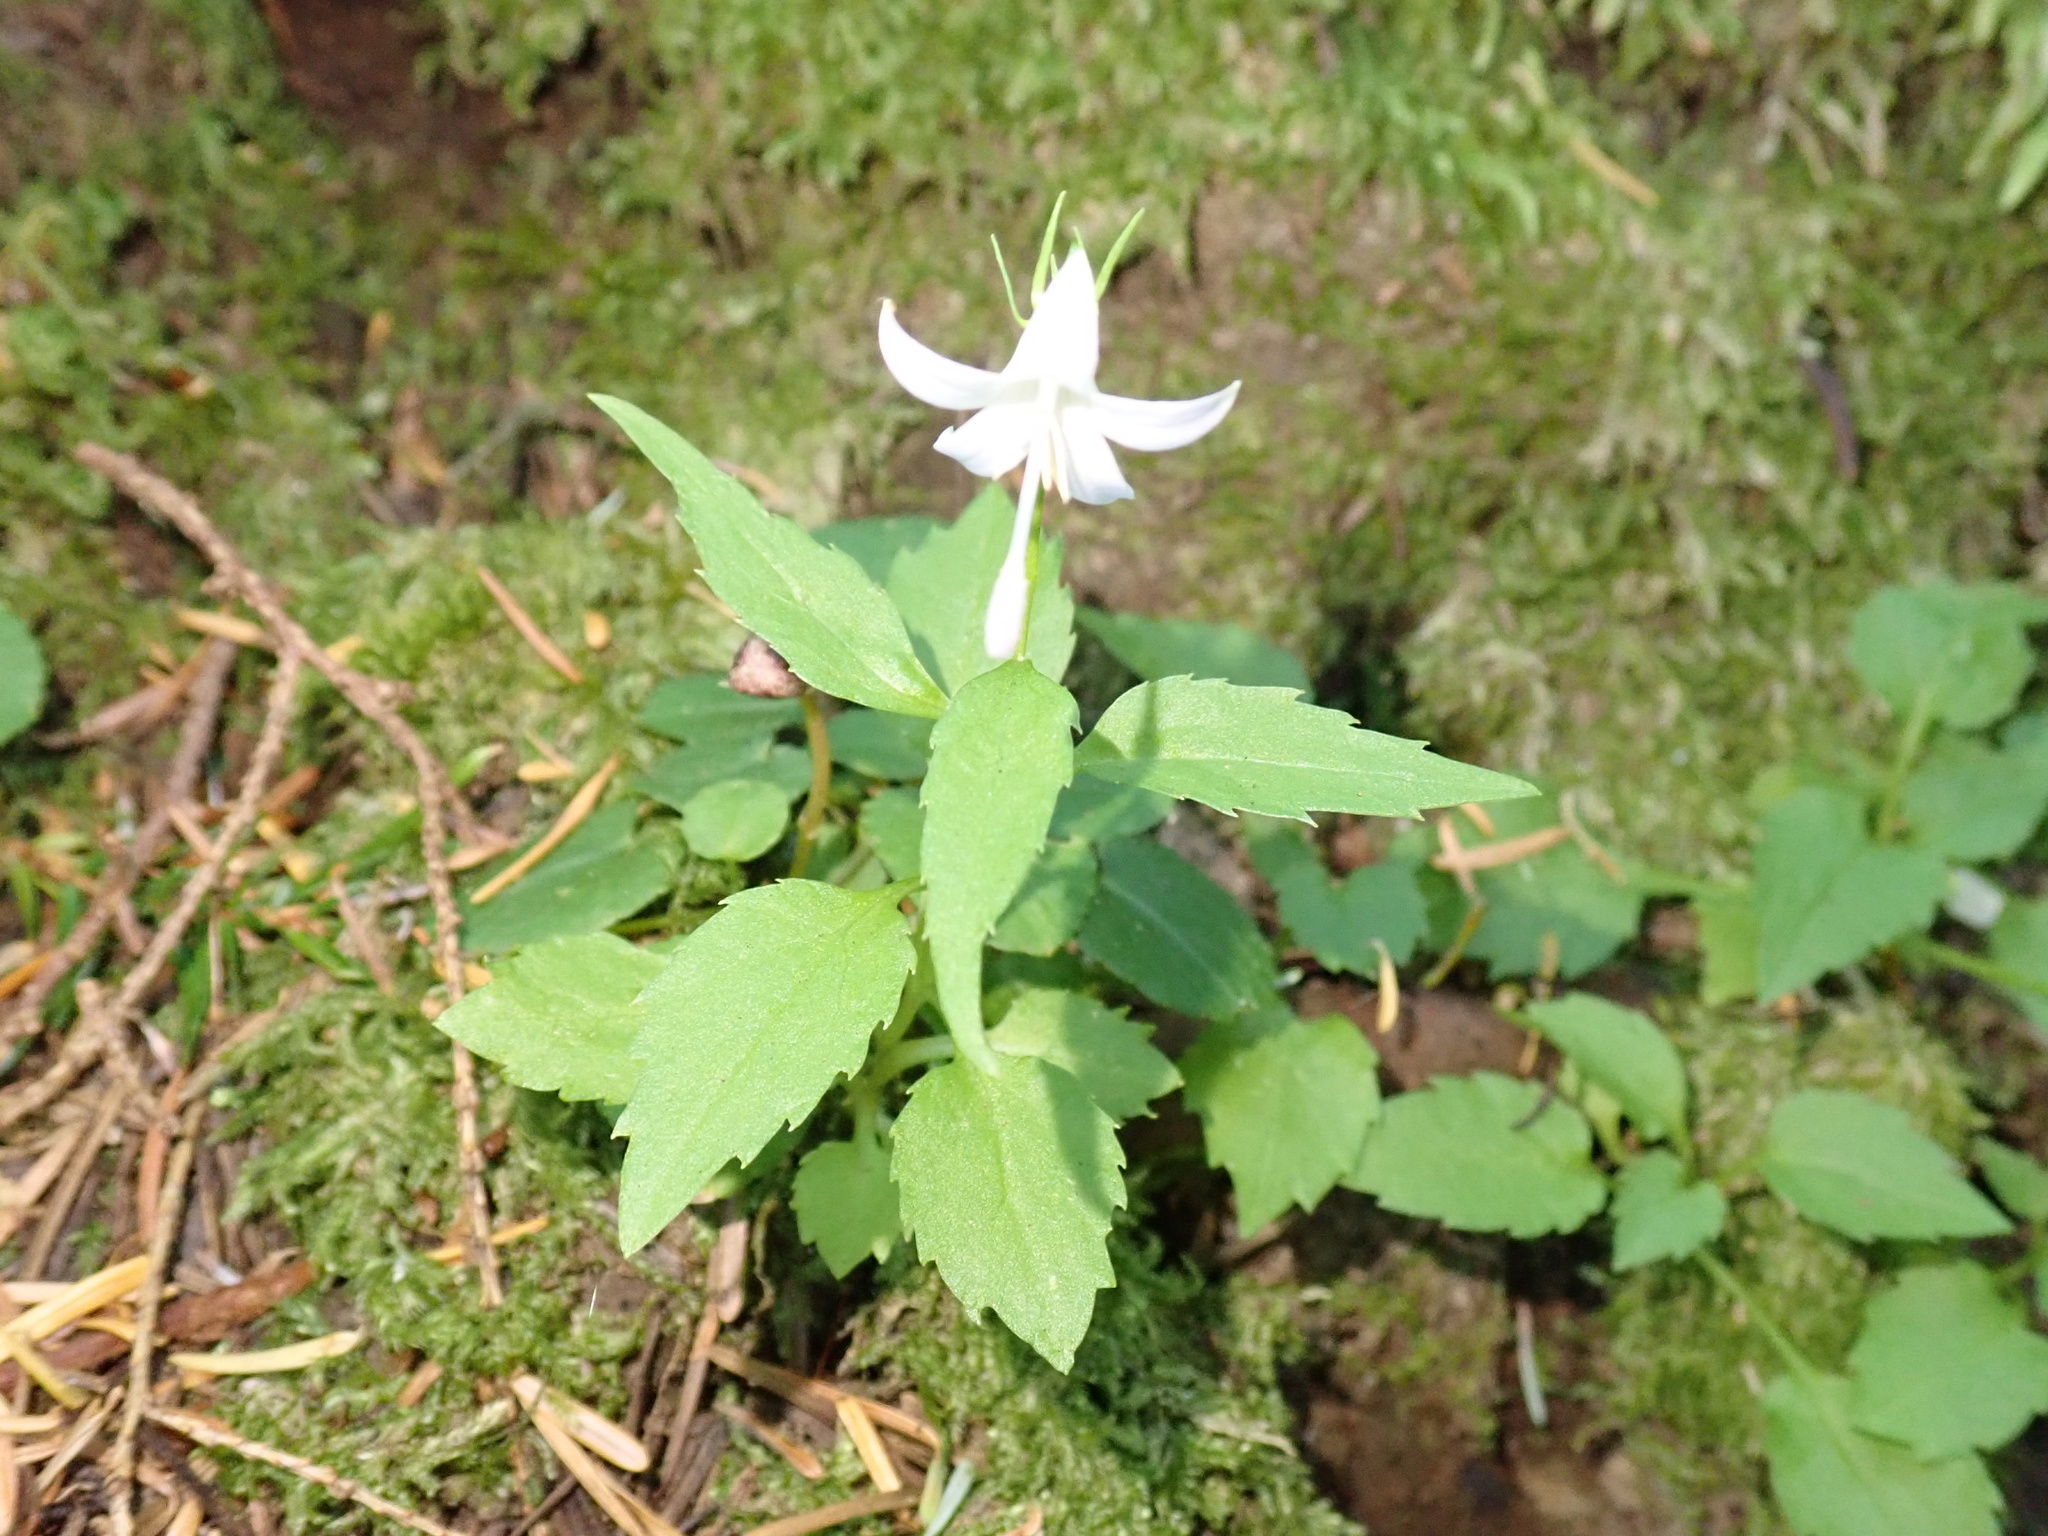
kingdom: Plantae
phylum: Tracheophyta
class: Magnoliopsida
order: Asterales
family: Campanulaceae
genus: Campanula
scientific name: Campanula scouleri
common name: Scouler's harebell
